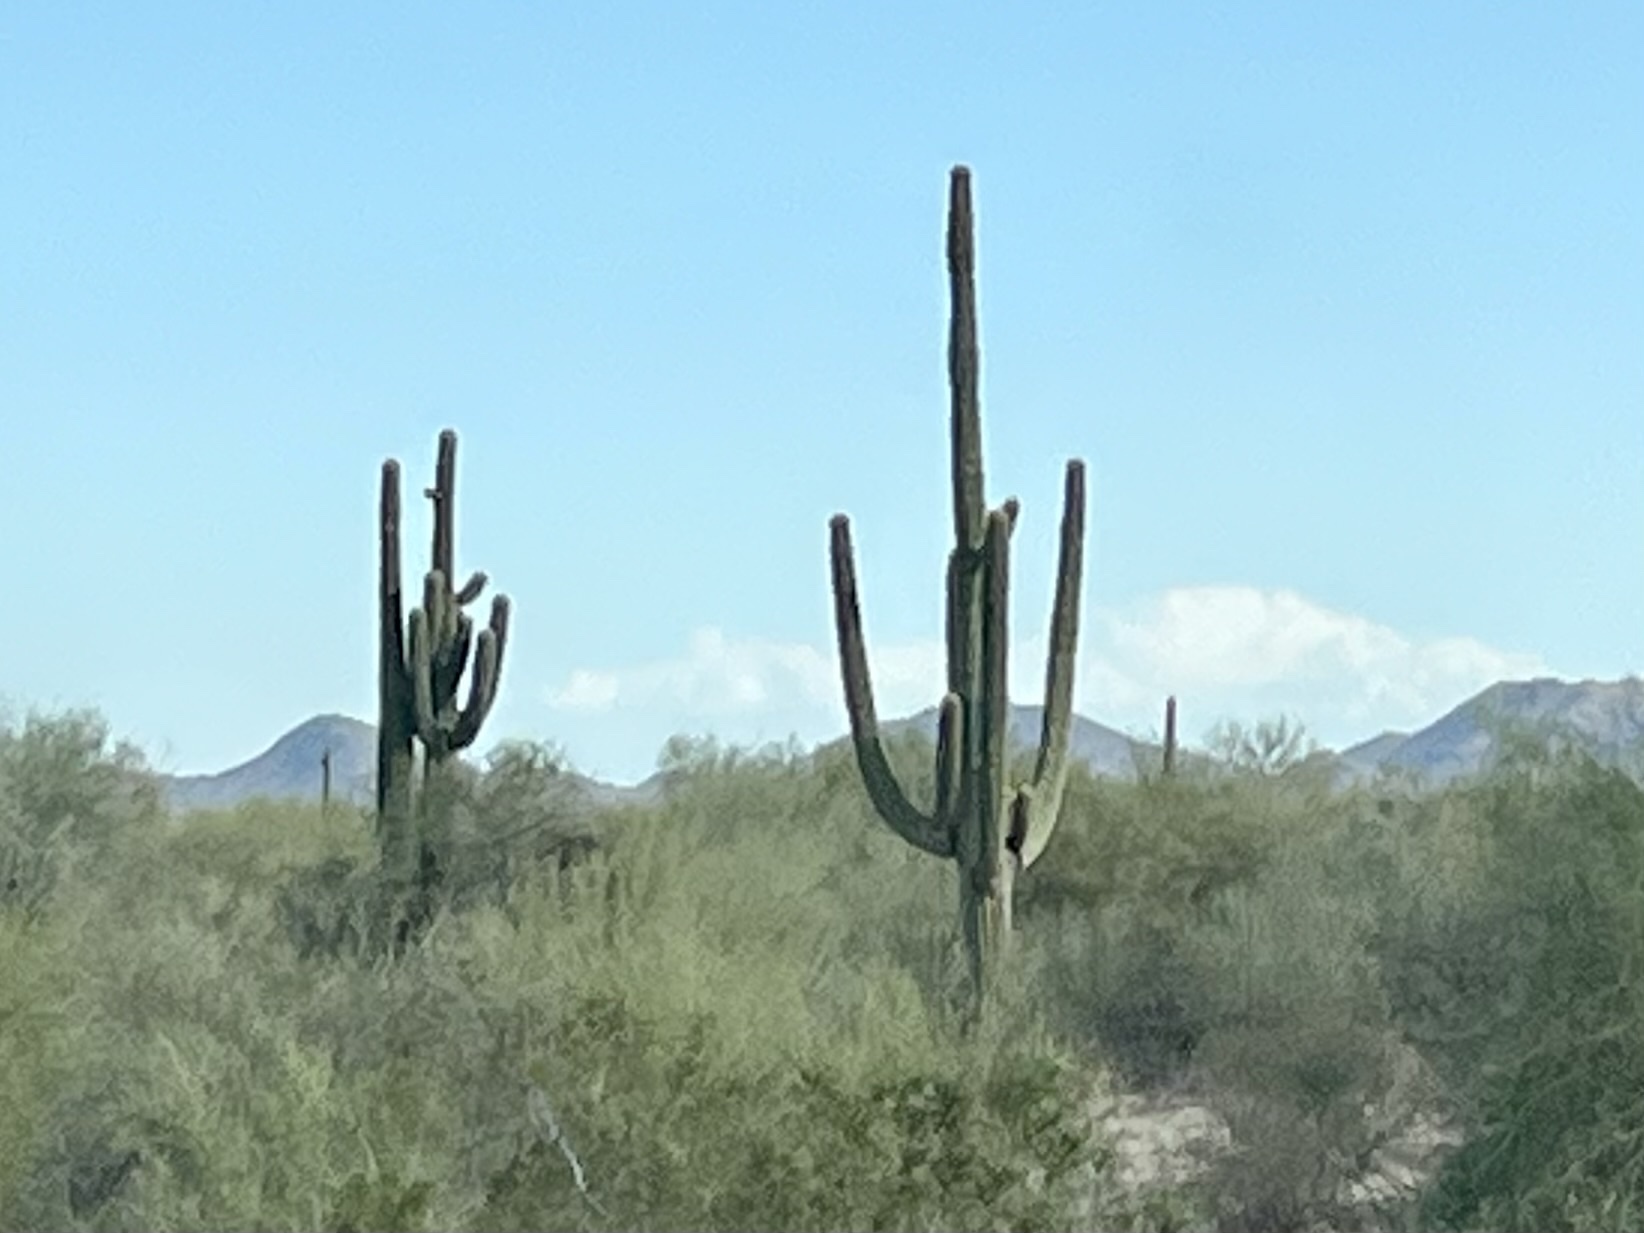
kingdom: Plantae
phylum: Tracheophyta
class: Magnoliopsida
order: Caryophyllales
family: Cactaceae
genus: Carnegiea
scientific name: Carnegiea gigantea
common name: Saguaro
